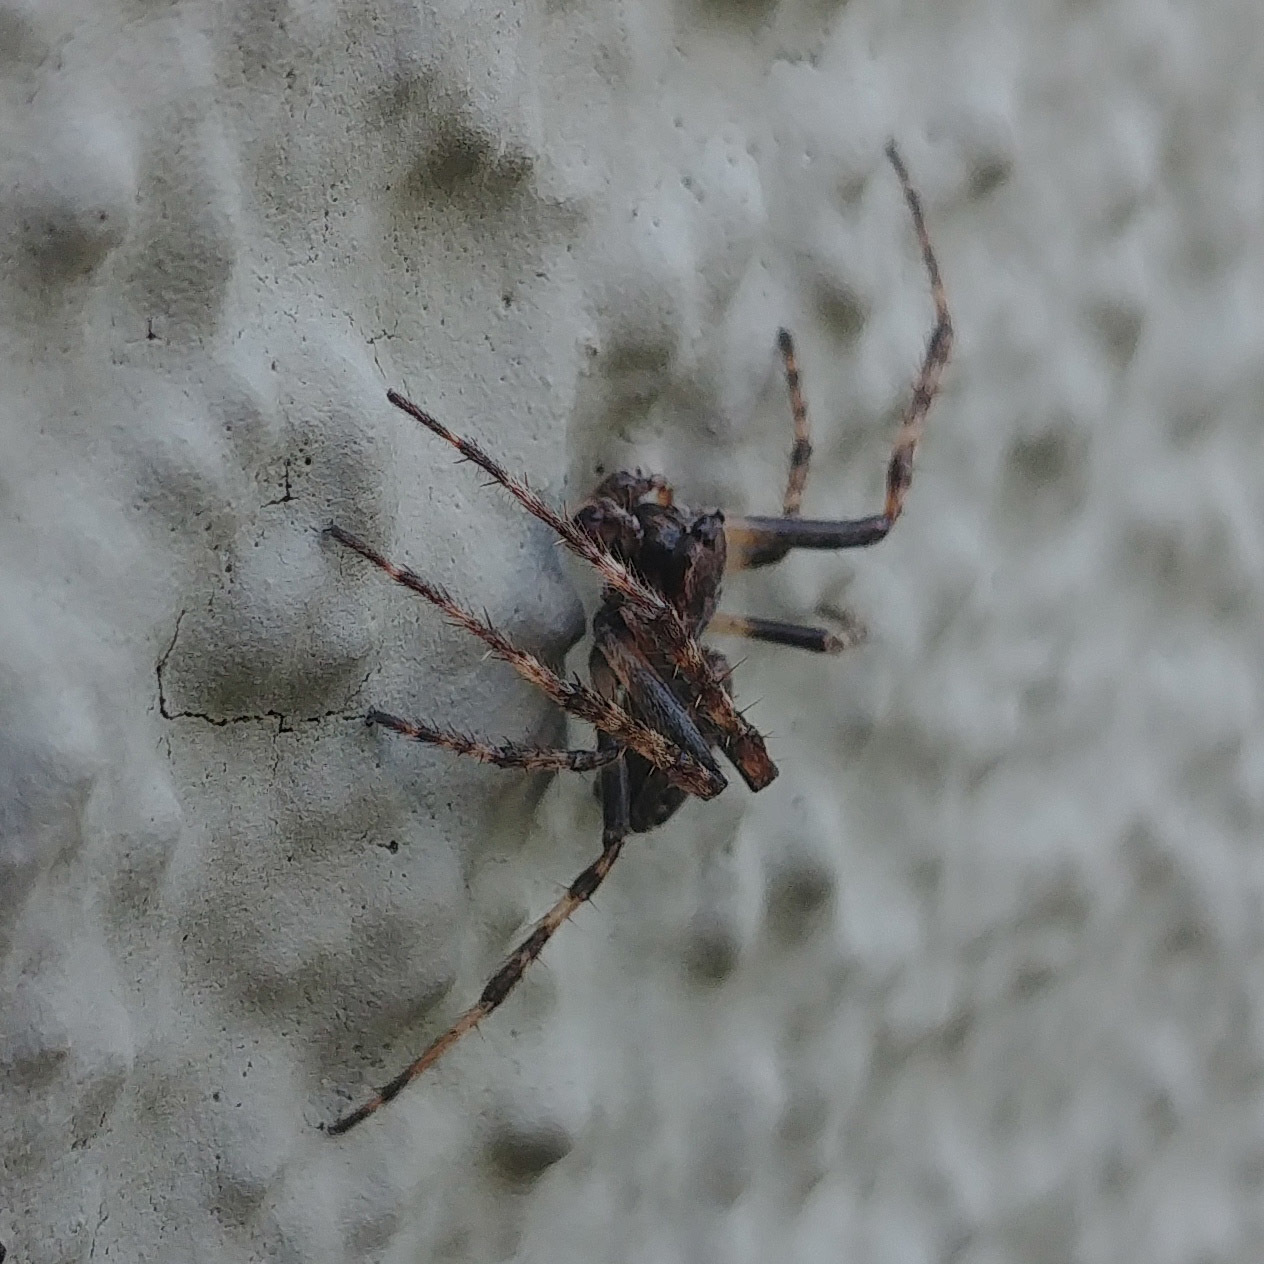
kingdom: Animalia
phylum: Arthropoda
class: Arachnida
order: Araneae
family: Araneidae
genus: Nuctenea
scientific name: Nuctenea umbratica
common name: Toad spider
